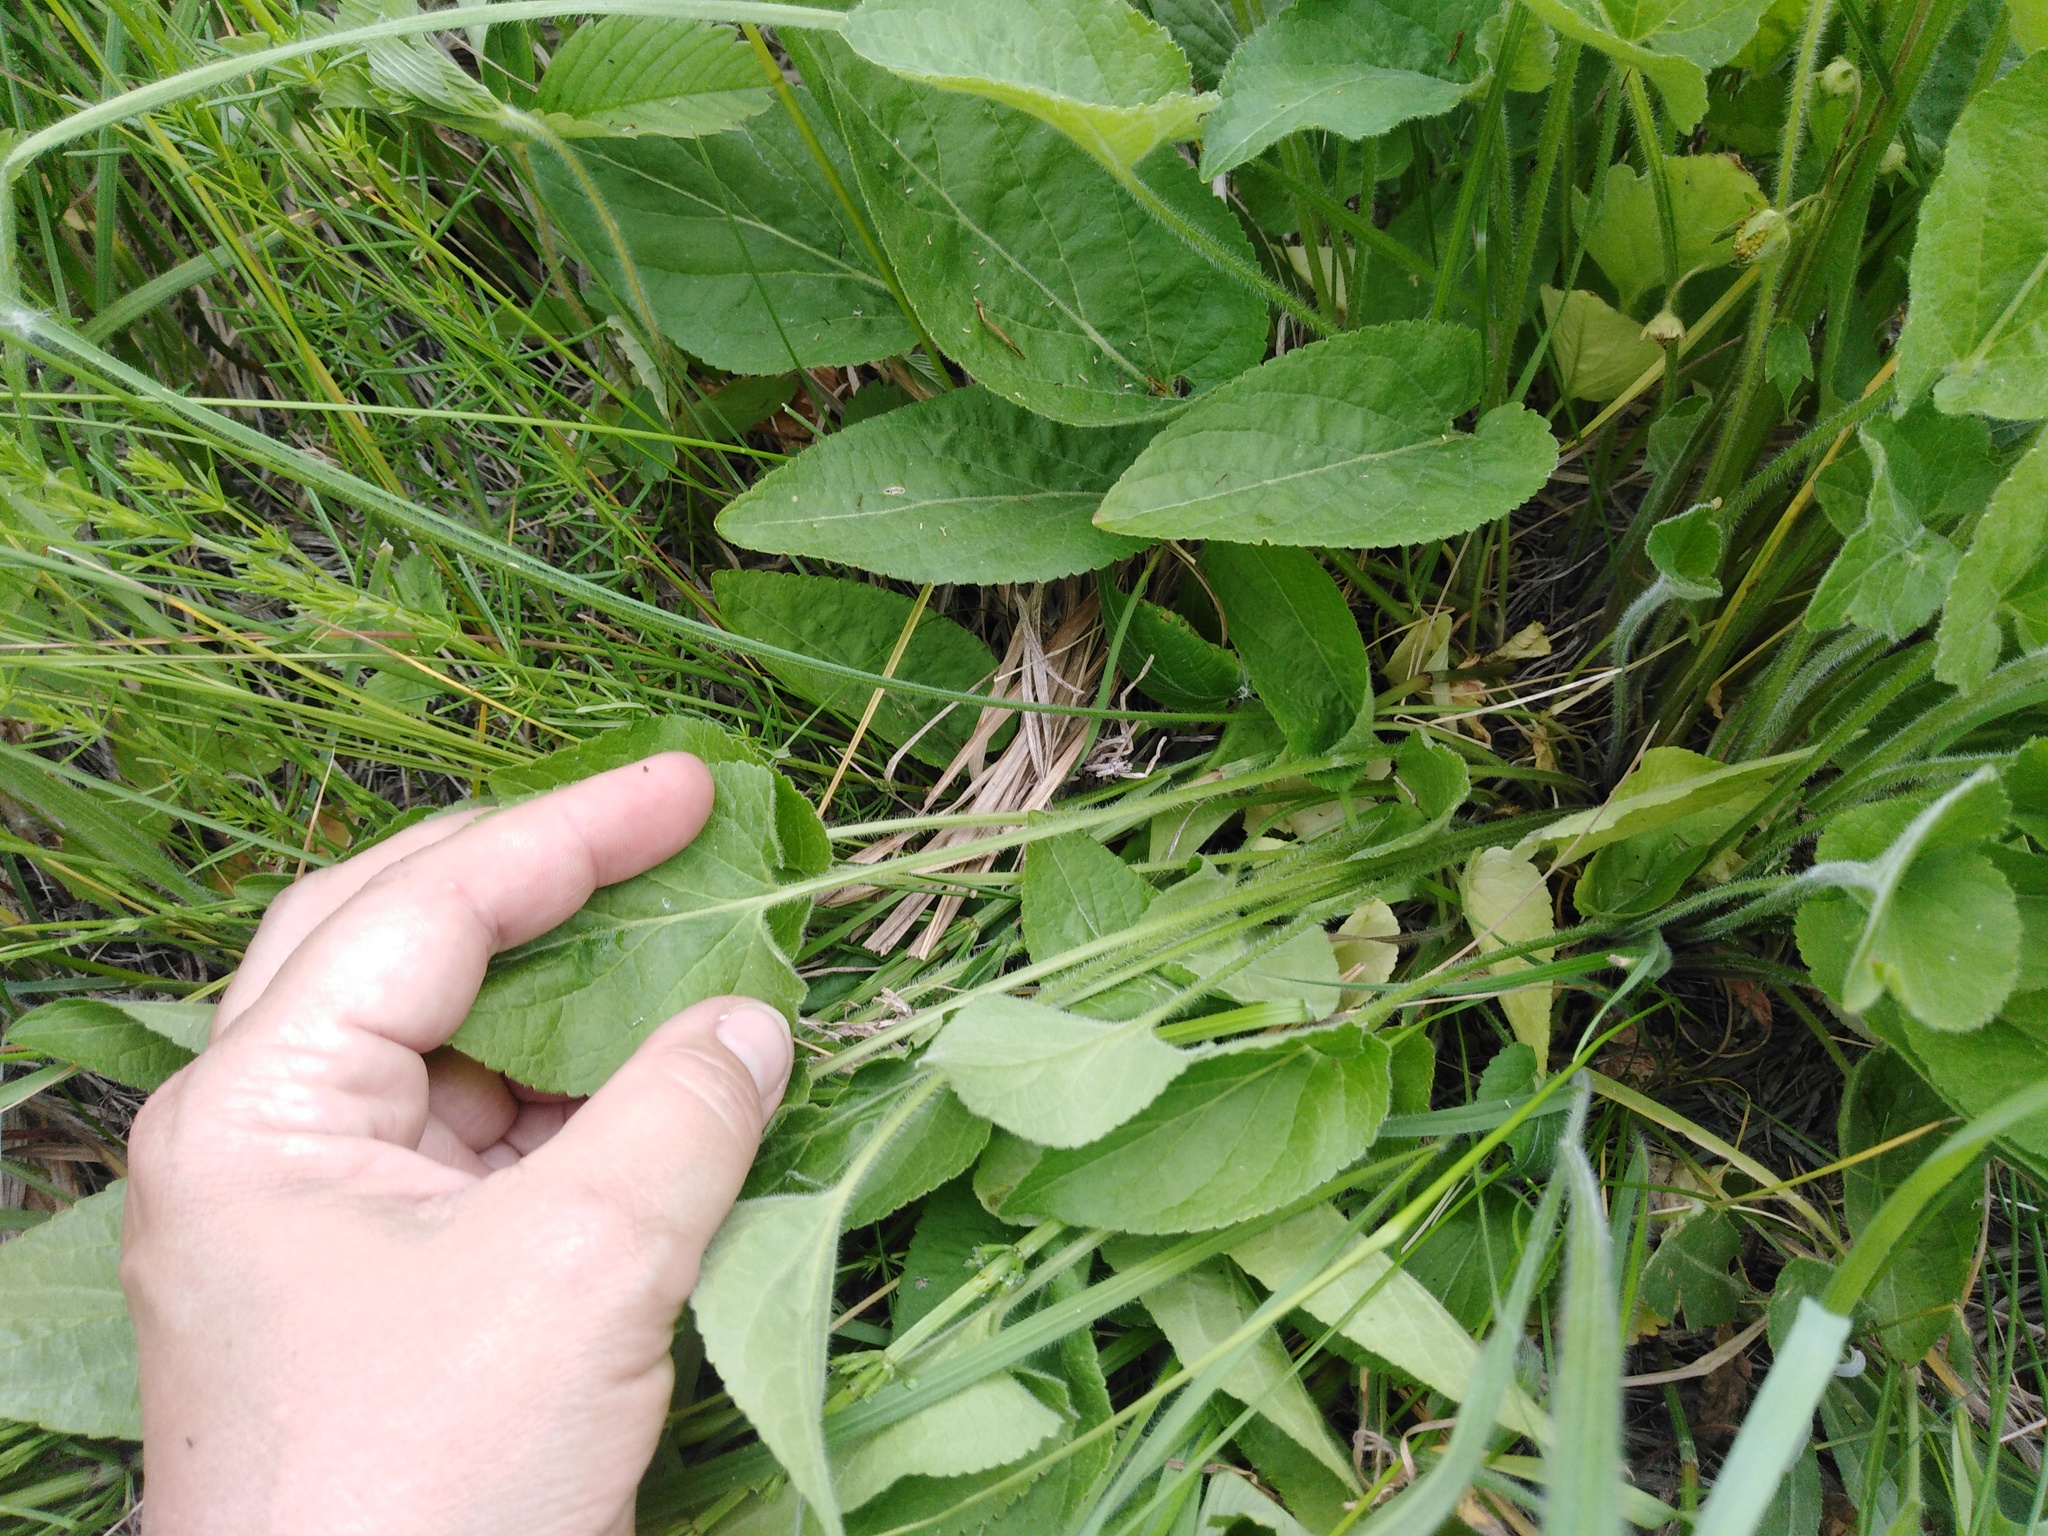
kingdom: Plantae
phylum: Tracheophyta
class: Magnoliopsida
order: Malpighiales
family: Violaceae
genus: Viola
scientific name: Viola hirta
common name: Hairy violet
